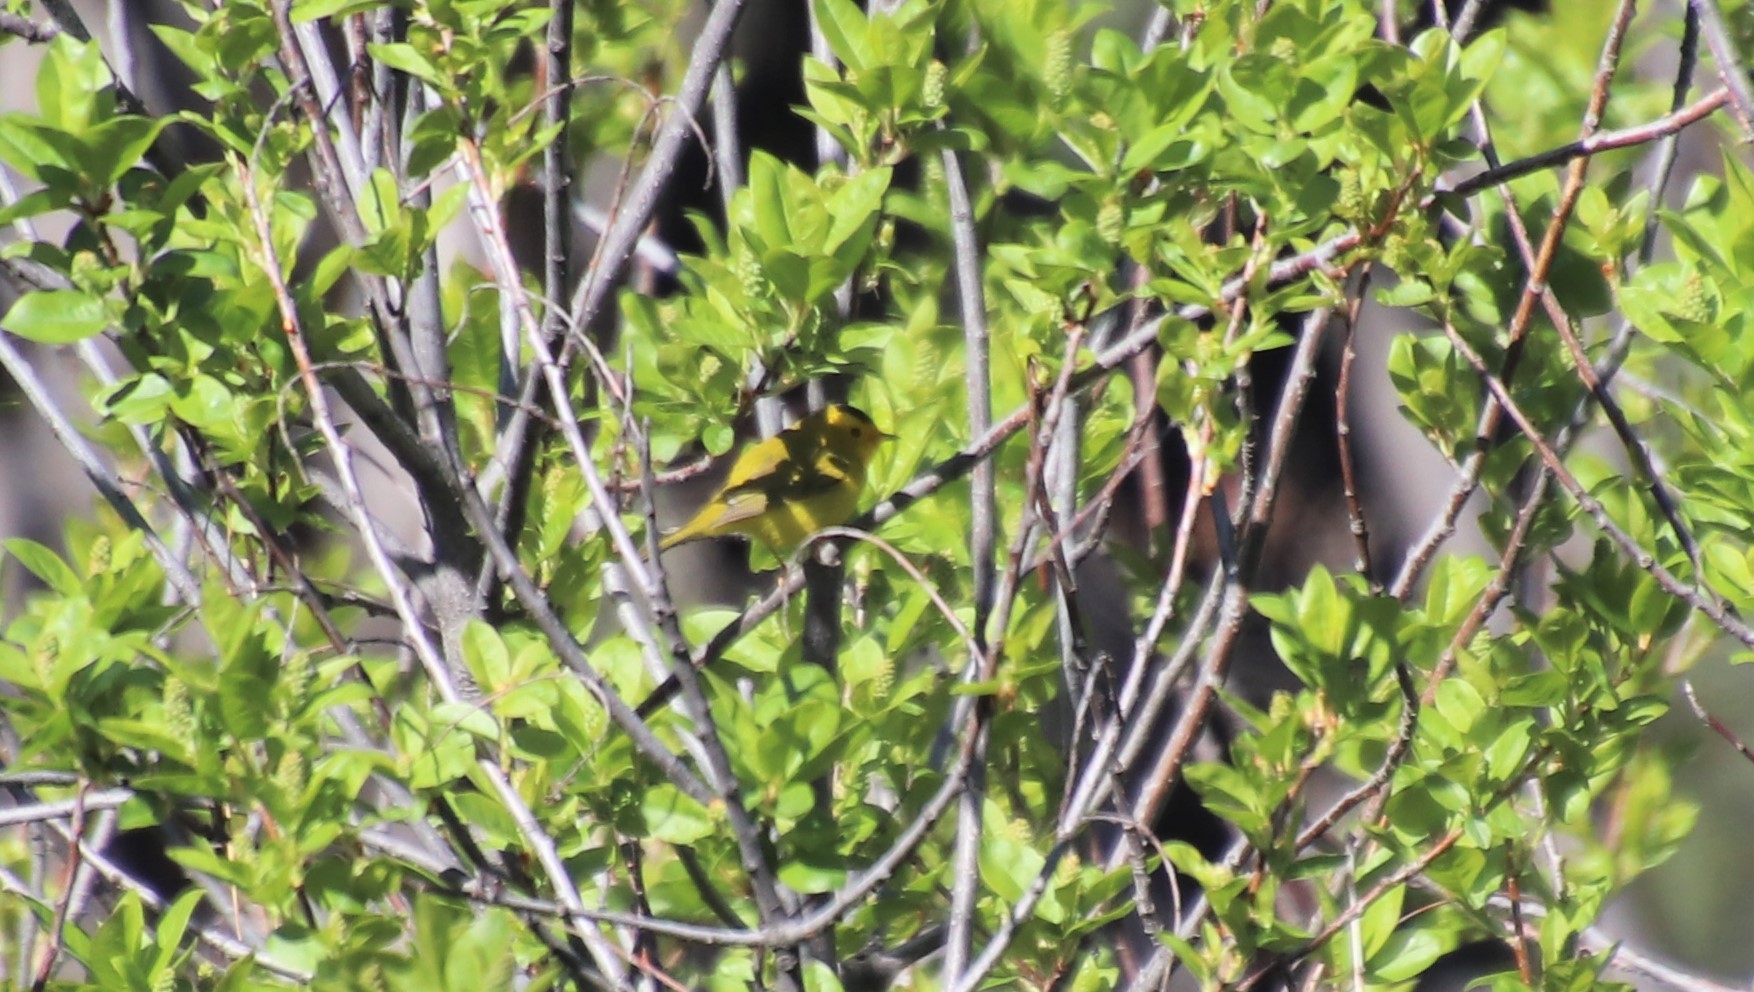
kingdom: Animalia
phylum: Chordata
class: Aves
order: Passeriformes
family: Parulidae
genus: Cardellina
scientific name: Cardellina pusilla
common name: Wilson's warbler
